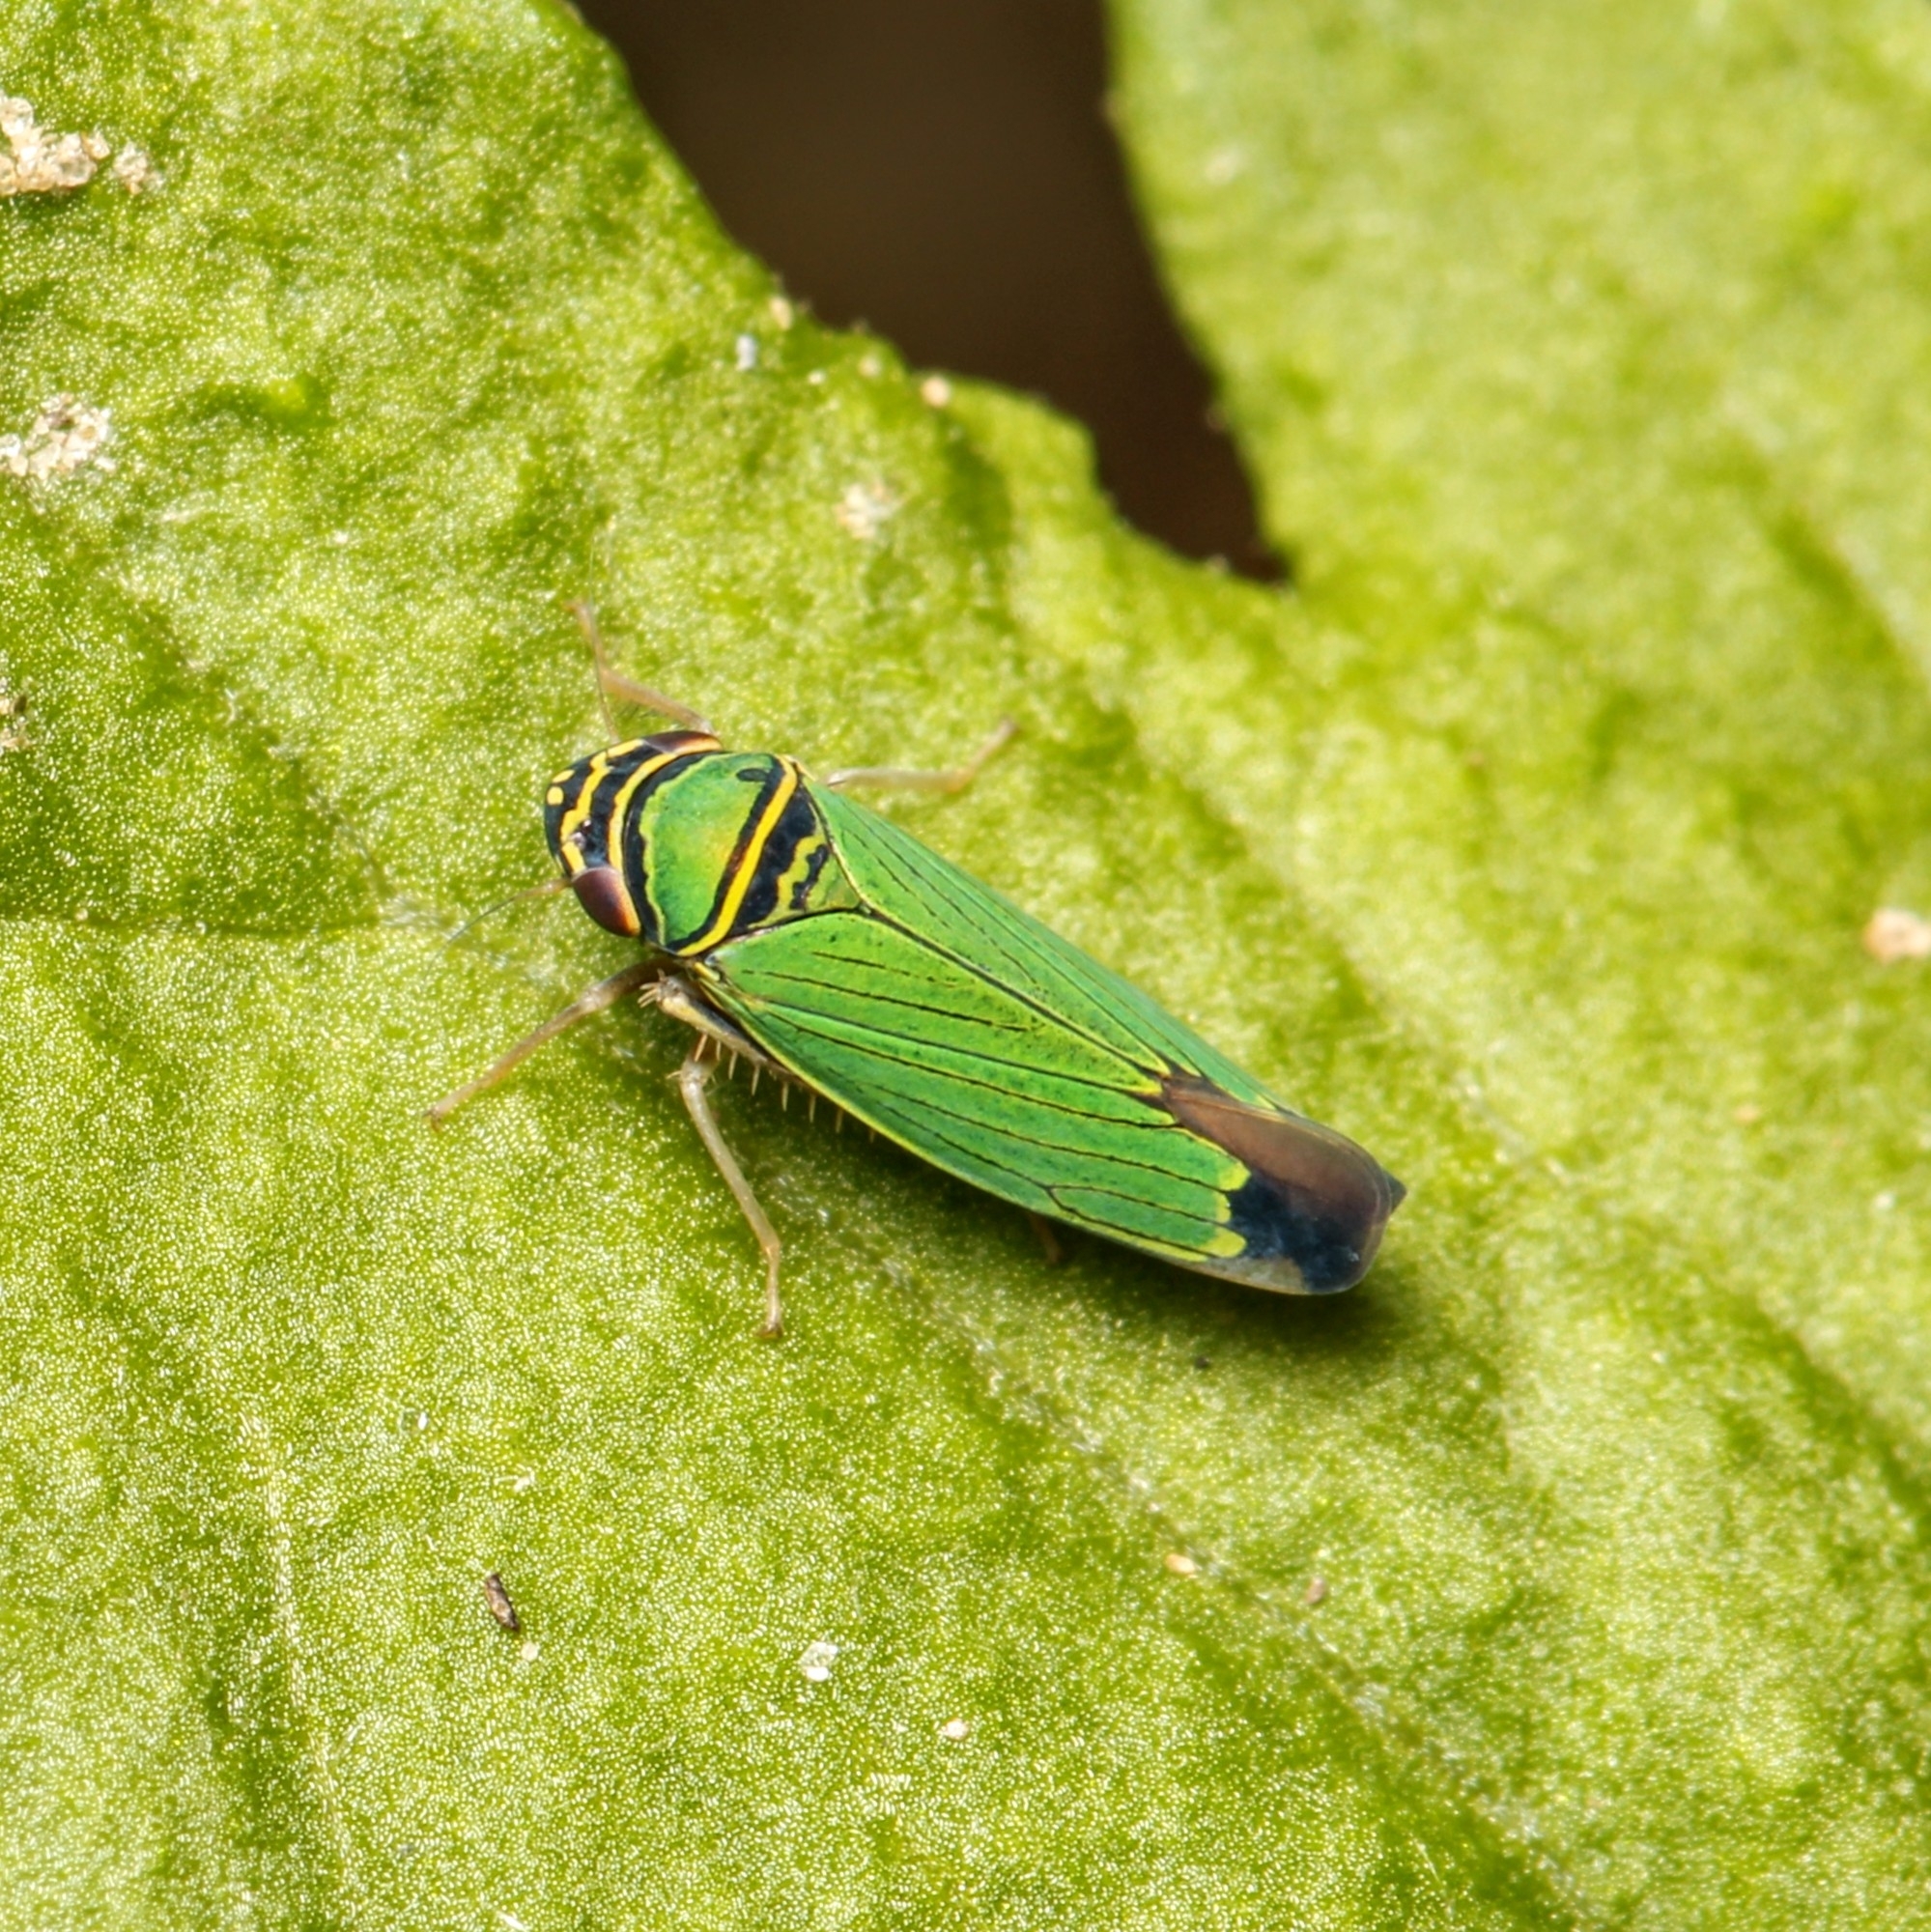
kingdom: Animalia
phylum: Arthropoda
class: Insecta
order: Hemiptera
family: Cicadellidae
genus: Tylozygus
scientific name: Tylozygus geometricus
